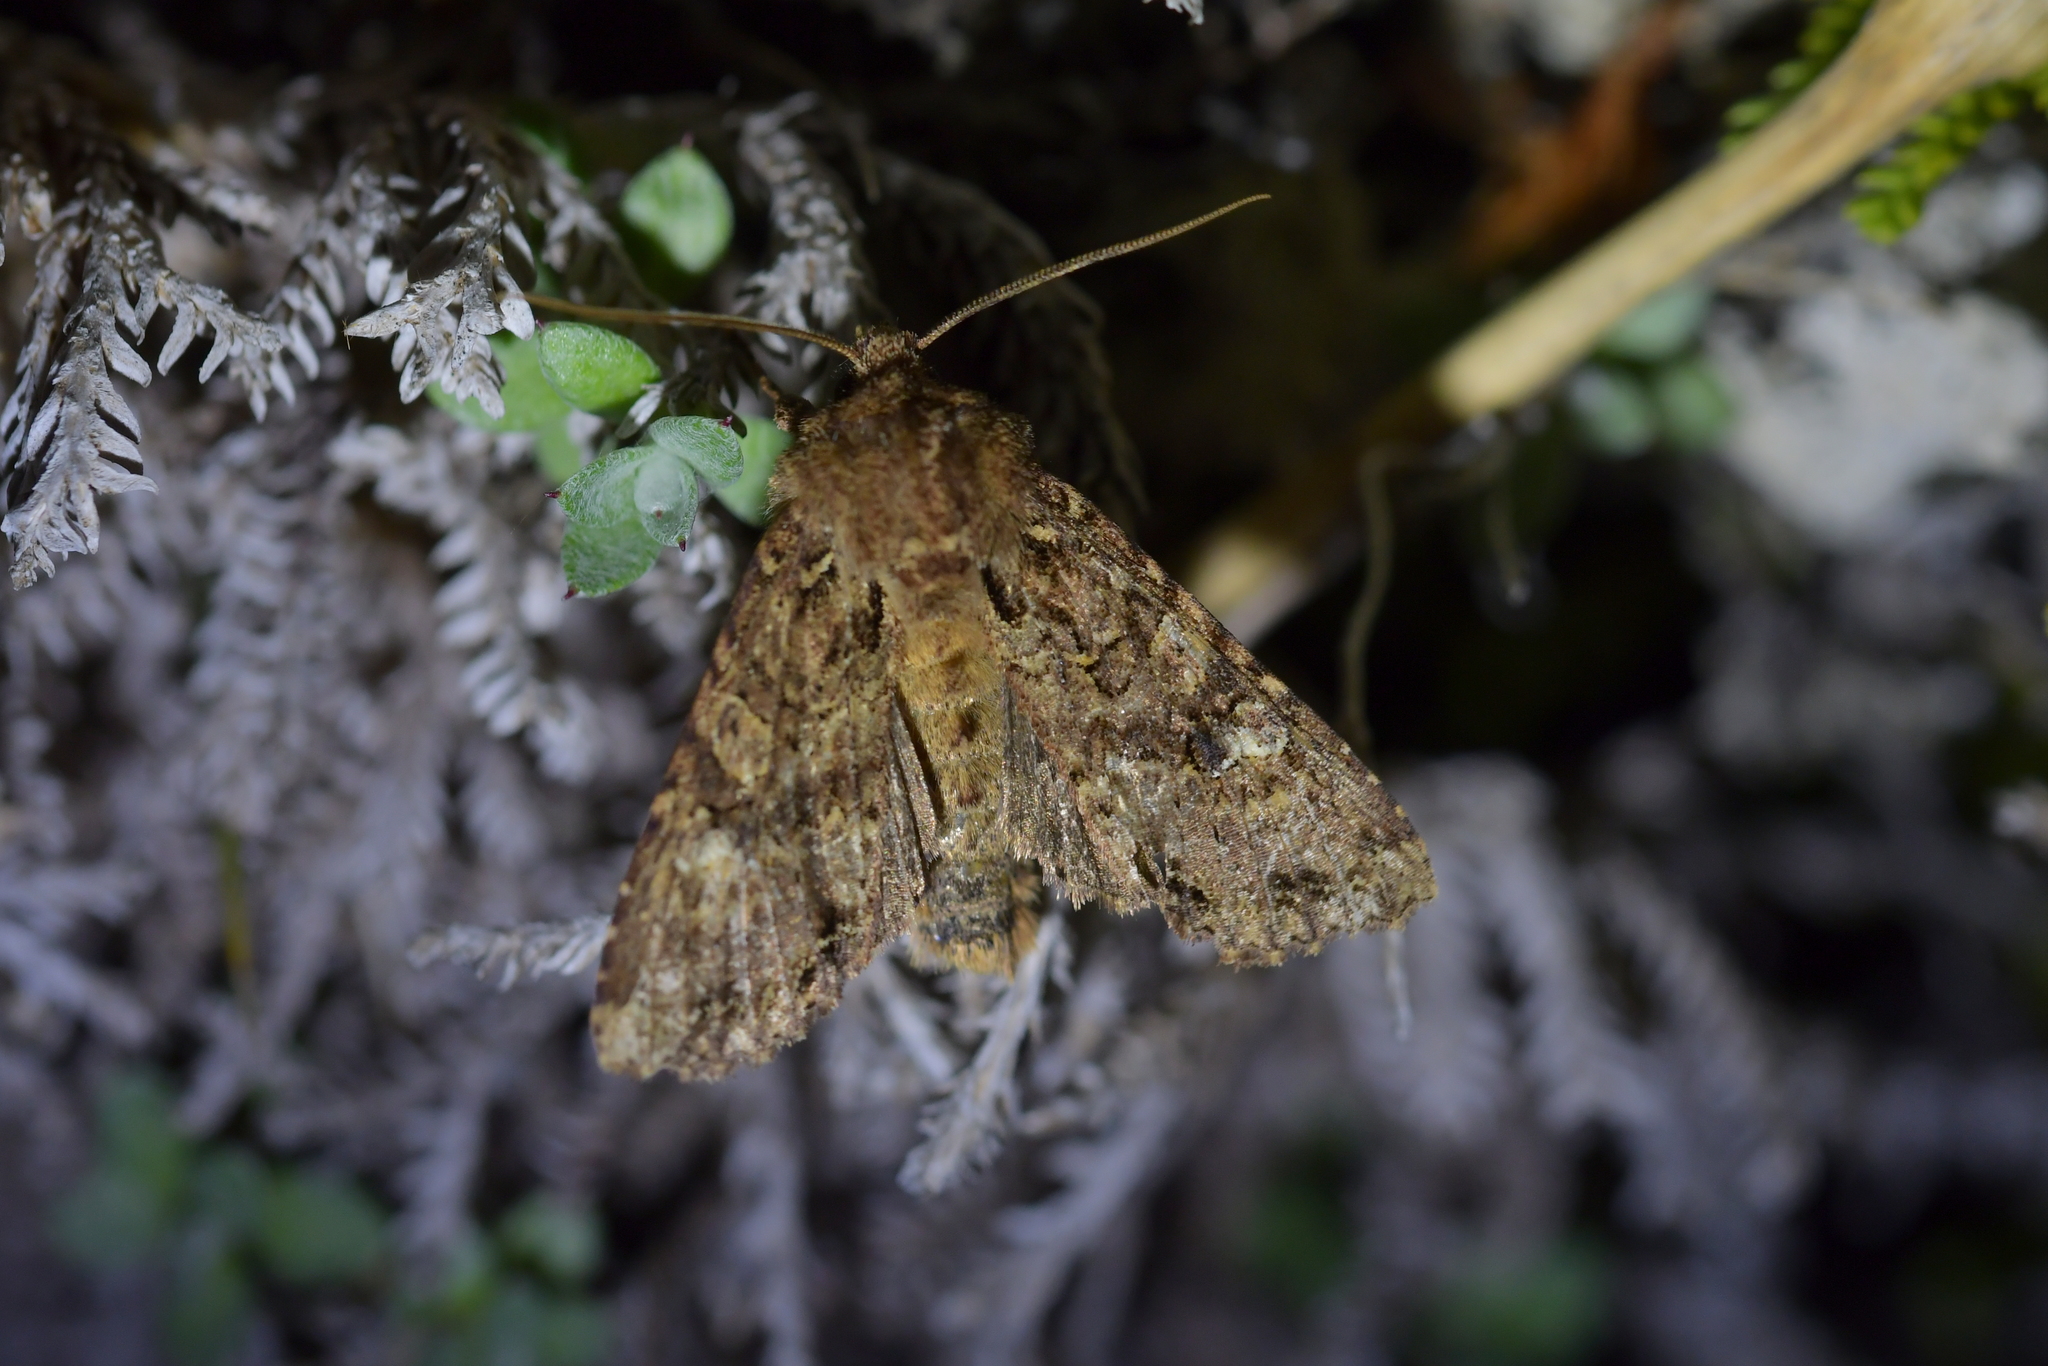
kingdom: Animalia
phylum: Arthropoda
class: Insecta
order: Lepidoptera
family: Noctuidae
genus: Meterana
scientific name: Meterana
